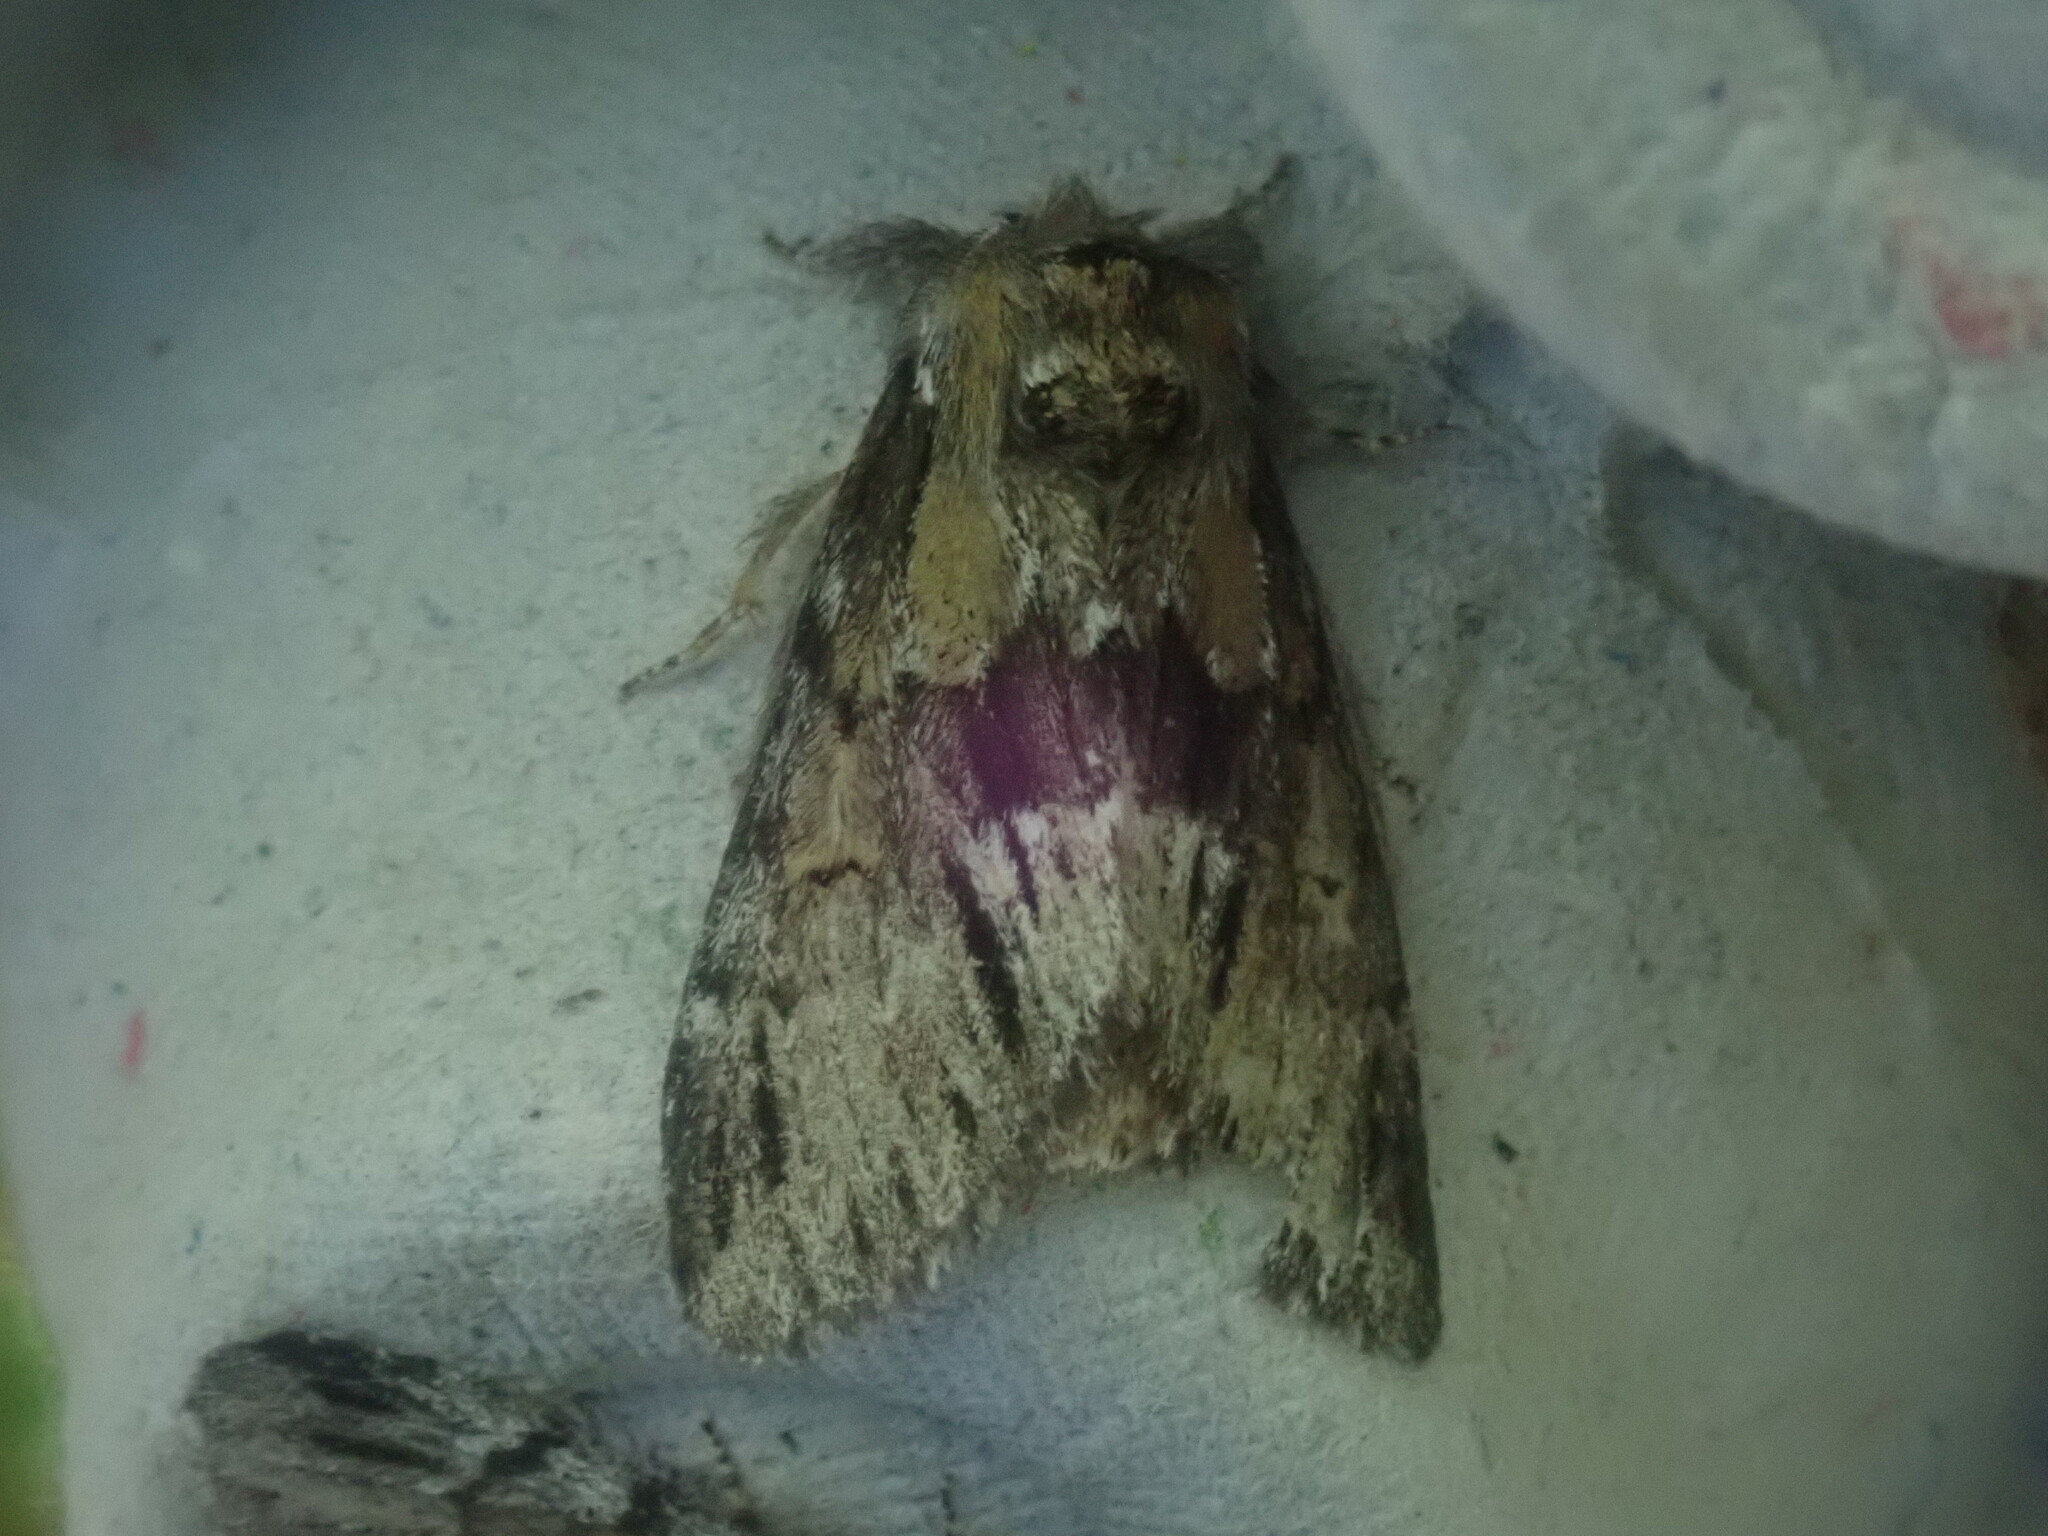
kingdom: Animalia
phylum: Arthropoda
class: Insecta
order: Lepidoptera
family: Notodontidae
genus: Paraeschra
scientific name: Paraeschra georgica
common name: Georgian prominent
